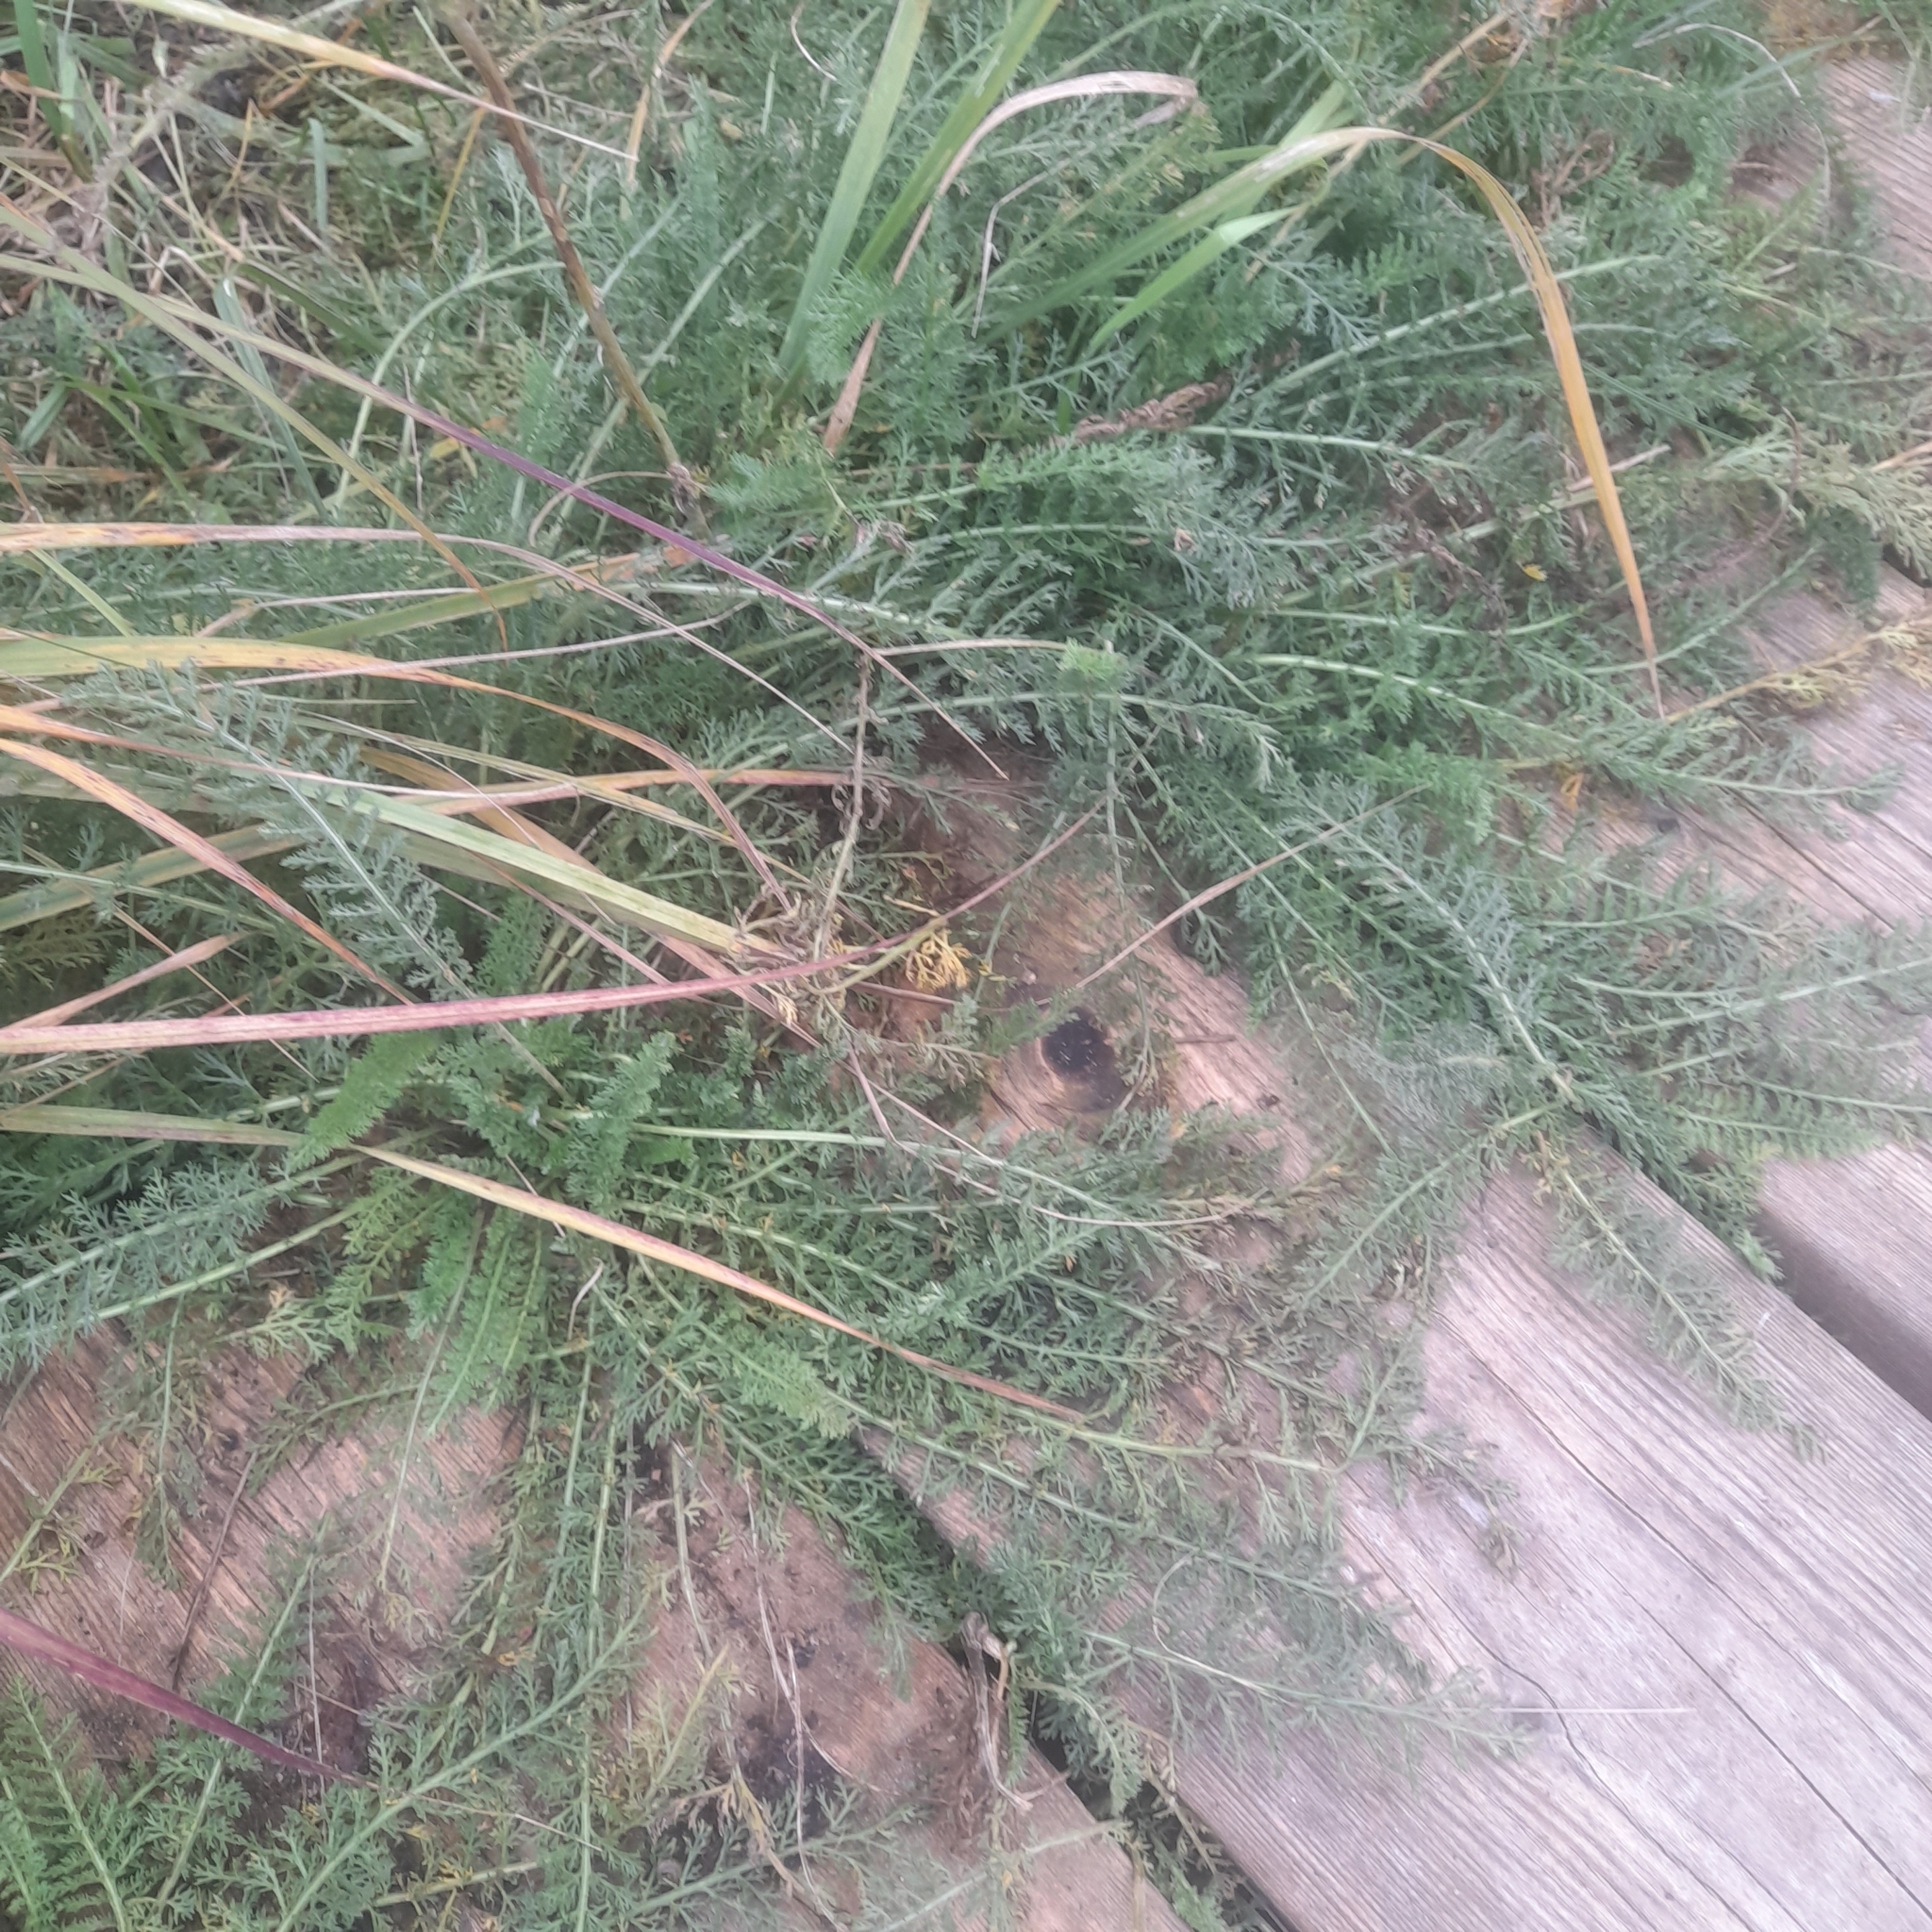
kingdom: Plantae
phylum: Tracheophyta
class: Magnoliopsida
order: Asterales
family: Asteraceae
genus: Achillea
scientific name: Achillea millefolium
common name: Yarrow
